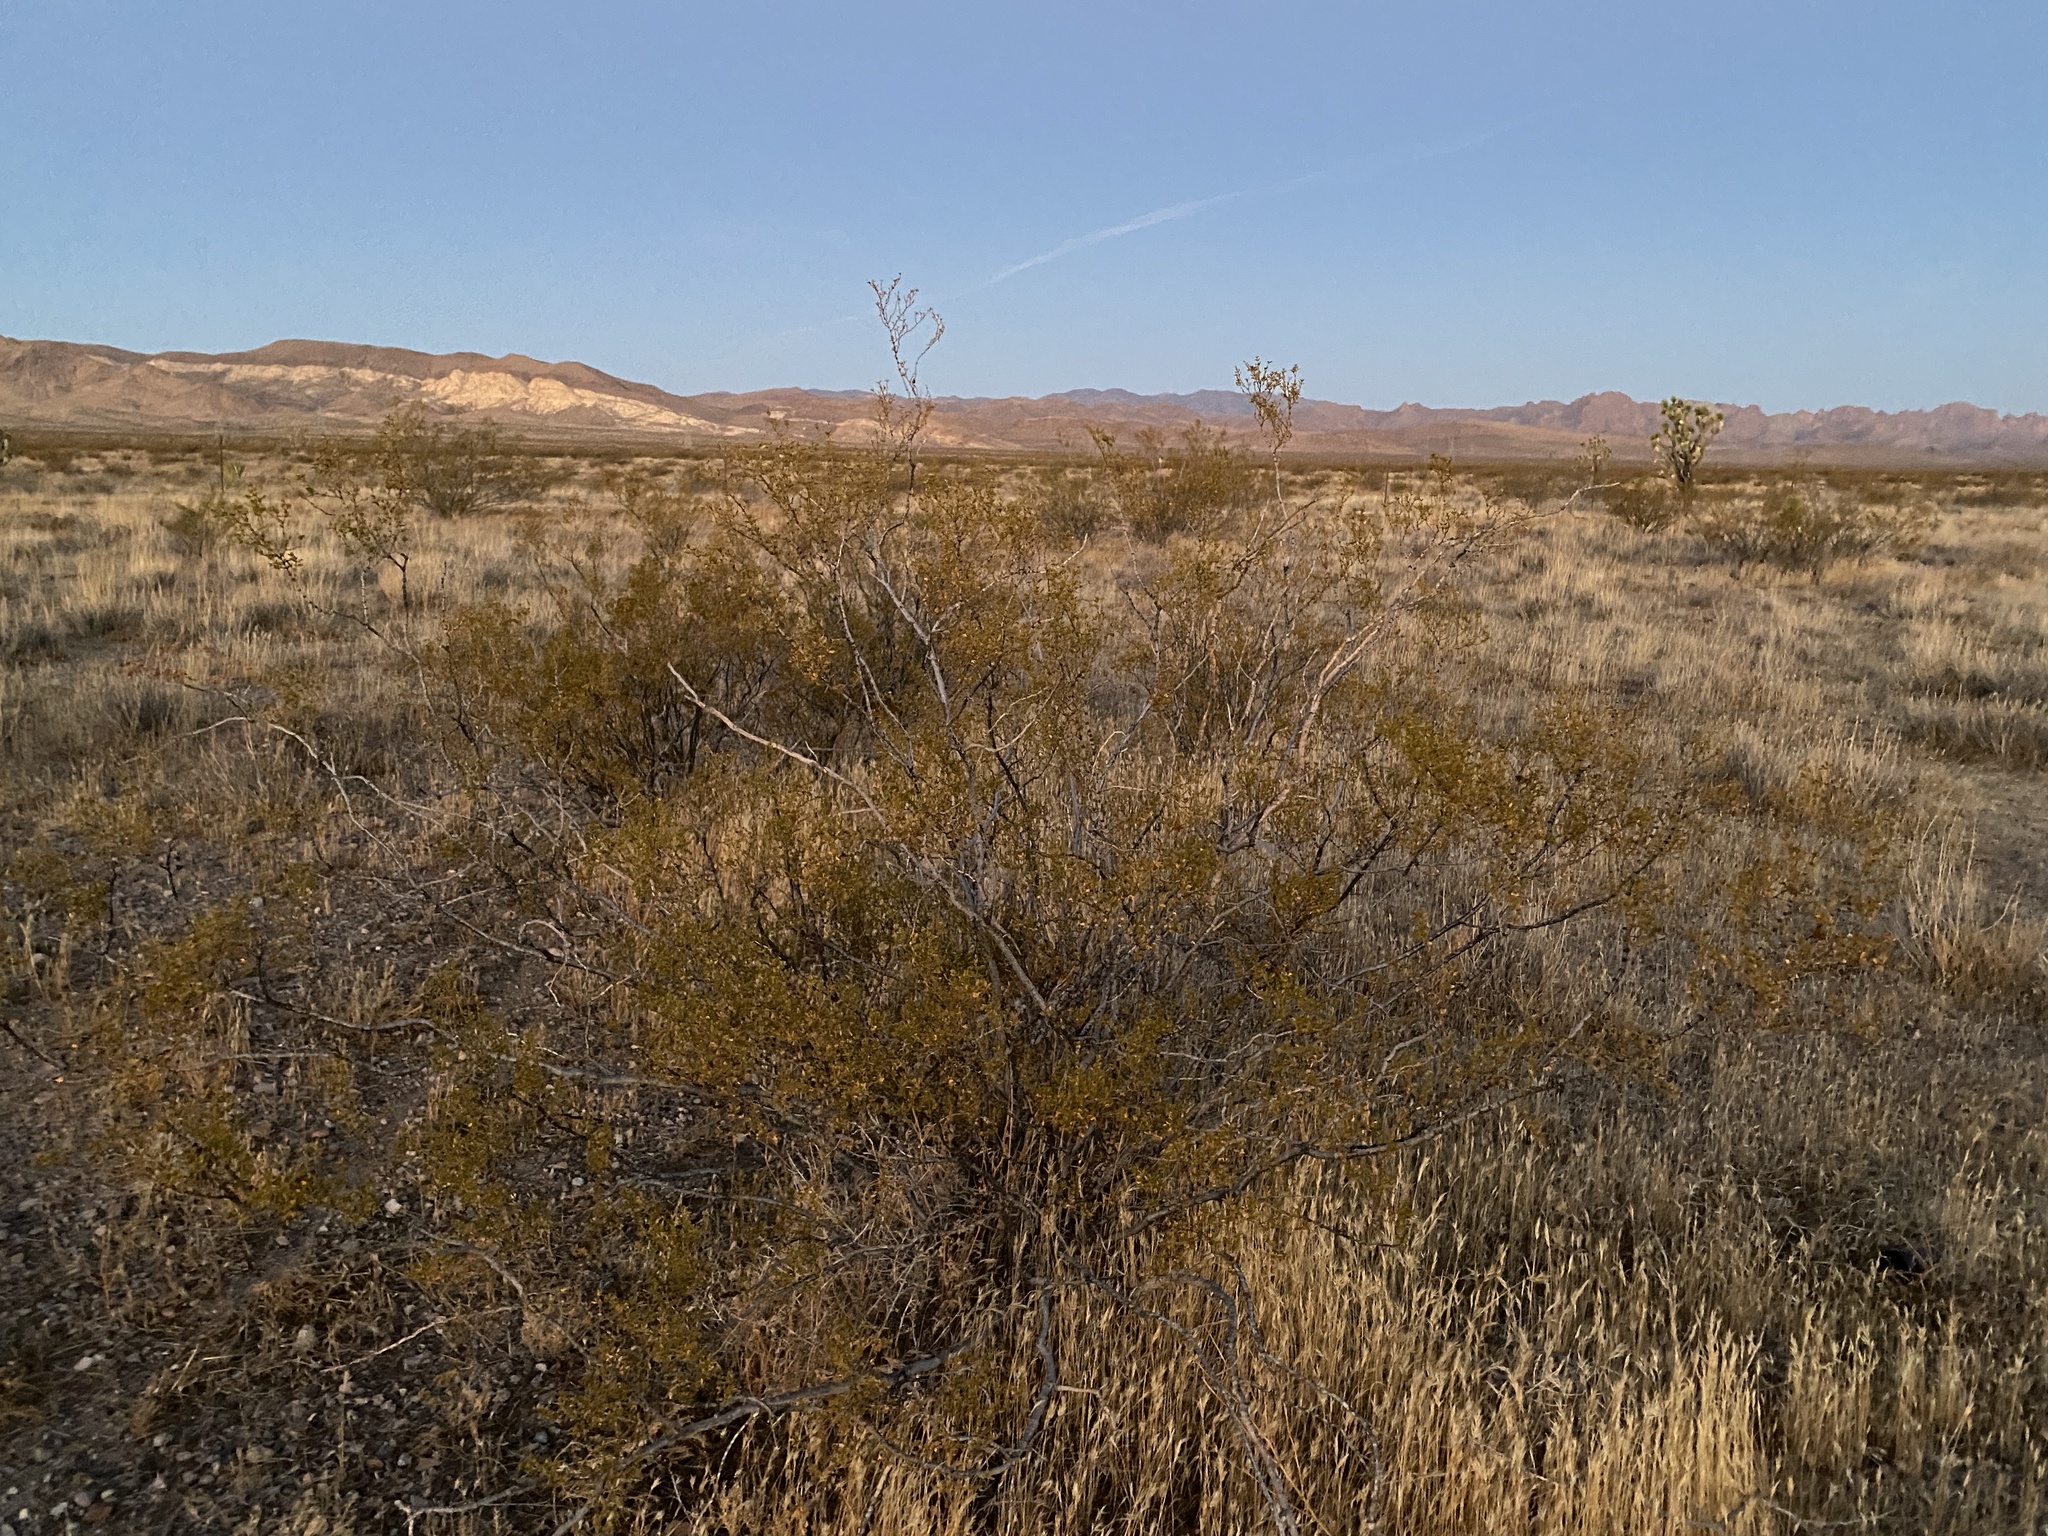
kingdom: Plantae
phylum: Tracheophyta
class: Magnoliopsida
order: Zygophyllales
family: Zygophyllaceae
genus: Larrea
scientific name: Larrea tridentata
